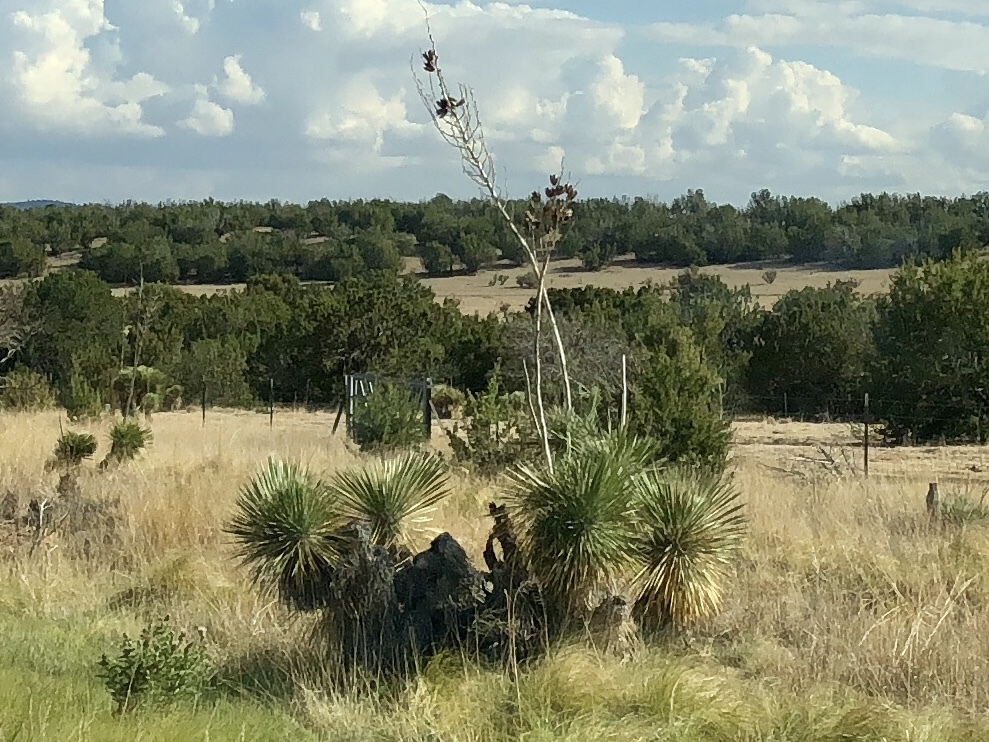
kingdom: Plantae
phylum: Tracheophyta
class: Liliopsida
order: Asparagales
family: Asparagaceae
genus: Yucca
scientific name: Yucca elata
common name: Palmella
